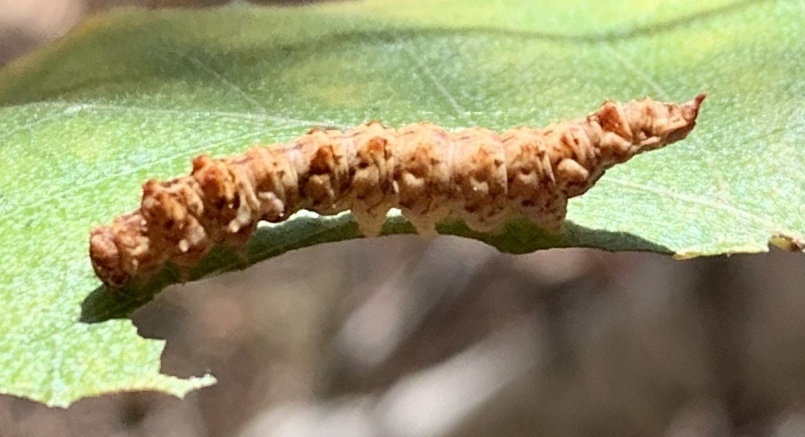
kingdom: Animalia
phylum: Arthropoda
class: Insecta
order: Lepidoptera
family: Drepanidae
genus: Falcaria
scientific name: Falcaria bilineata
